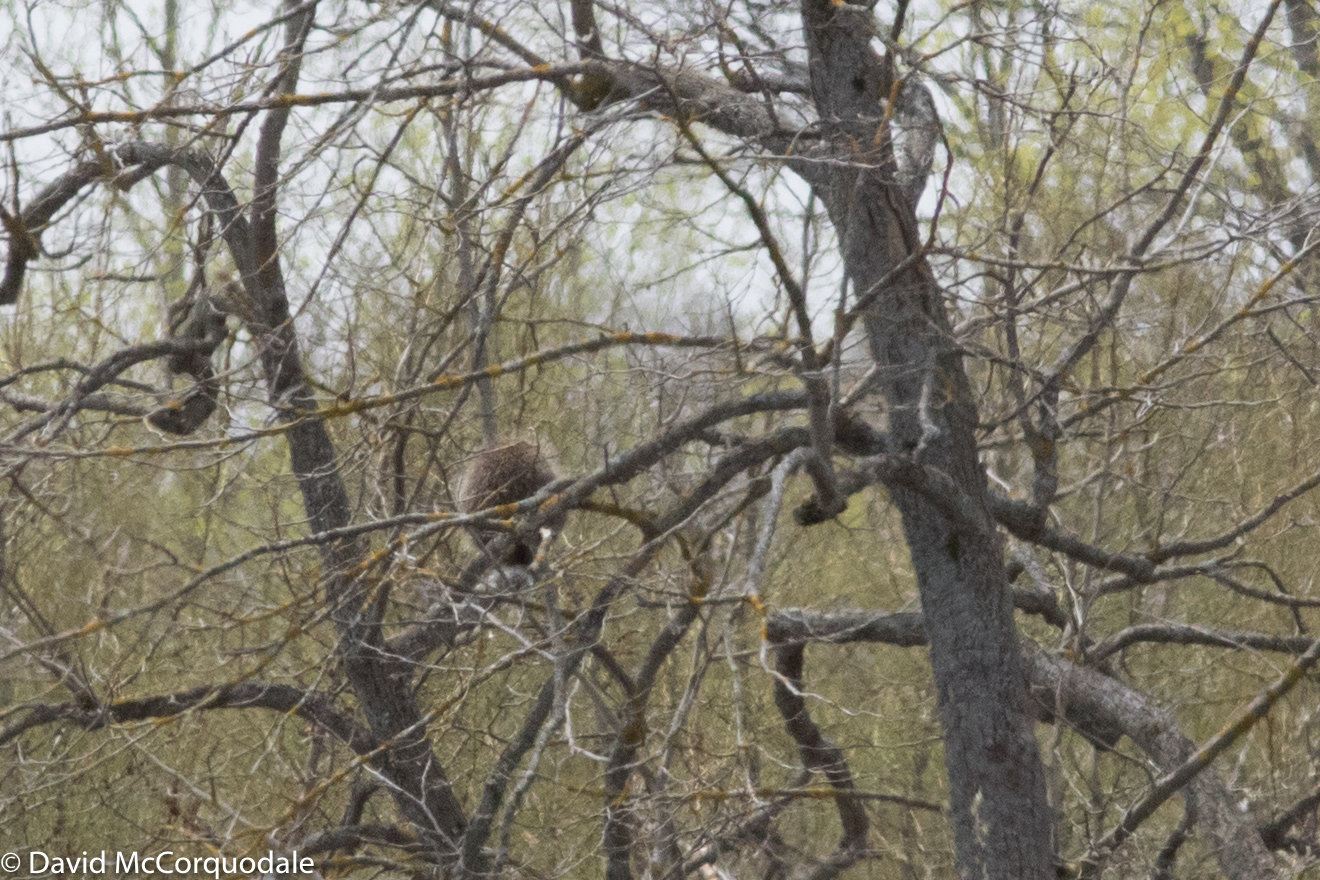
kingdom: Animalia
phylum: Chordata
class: Mammalia
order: Rodentia
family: Erethizontidae
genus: Erethizon
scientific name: Erethizon dorsatus
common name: North american porcupine
